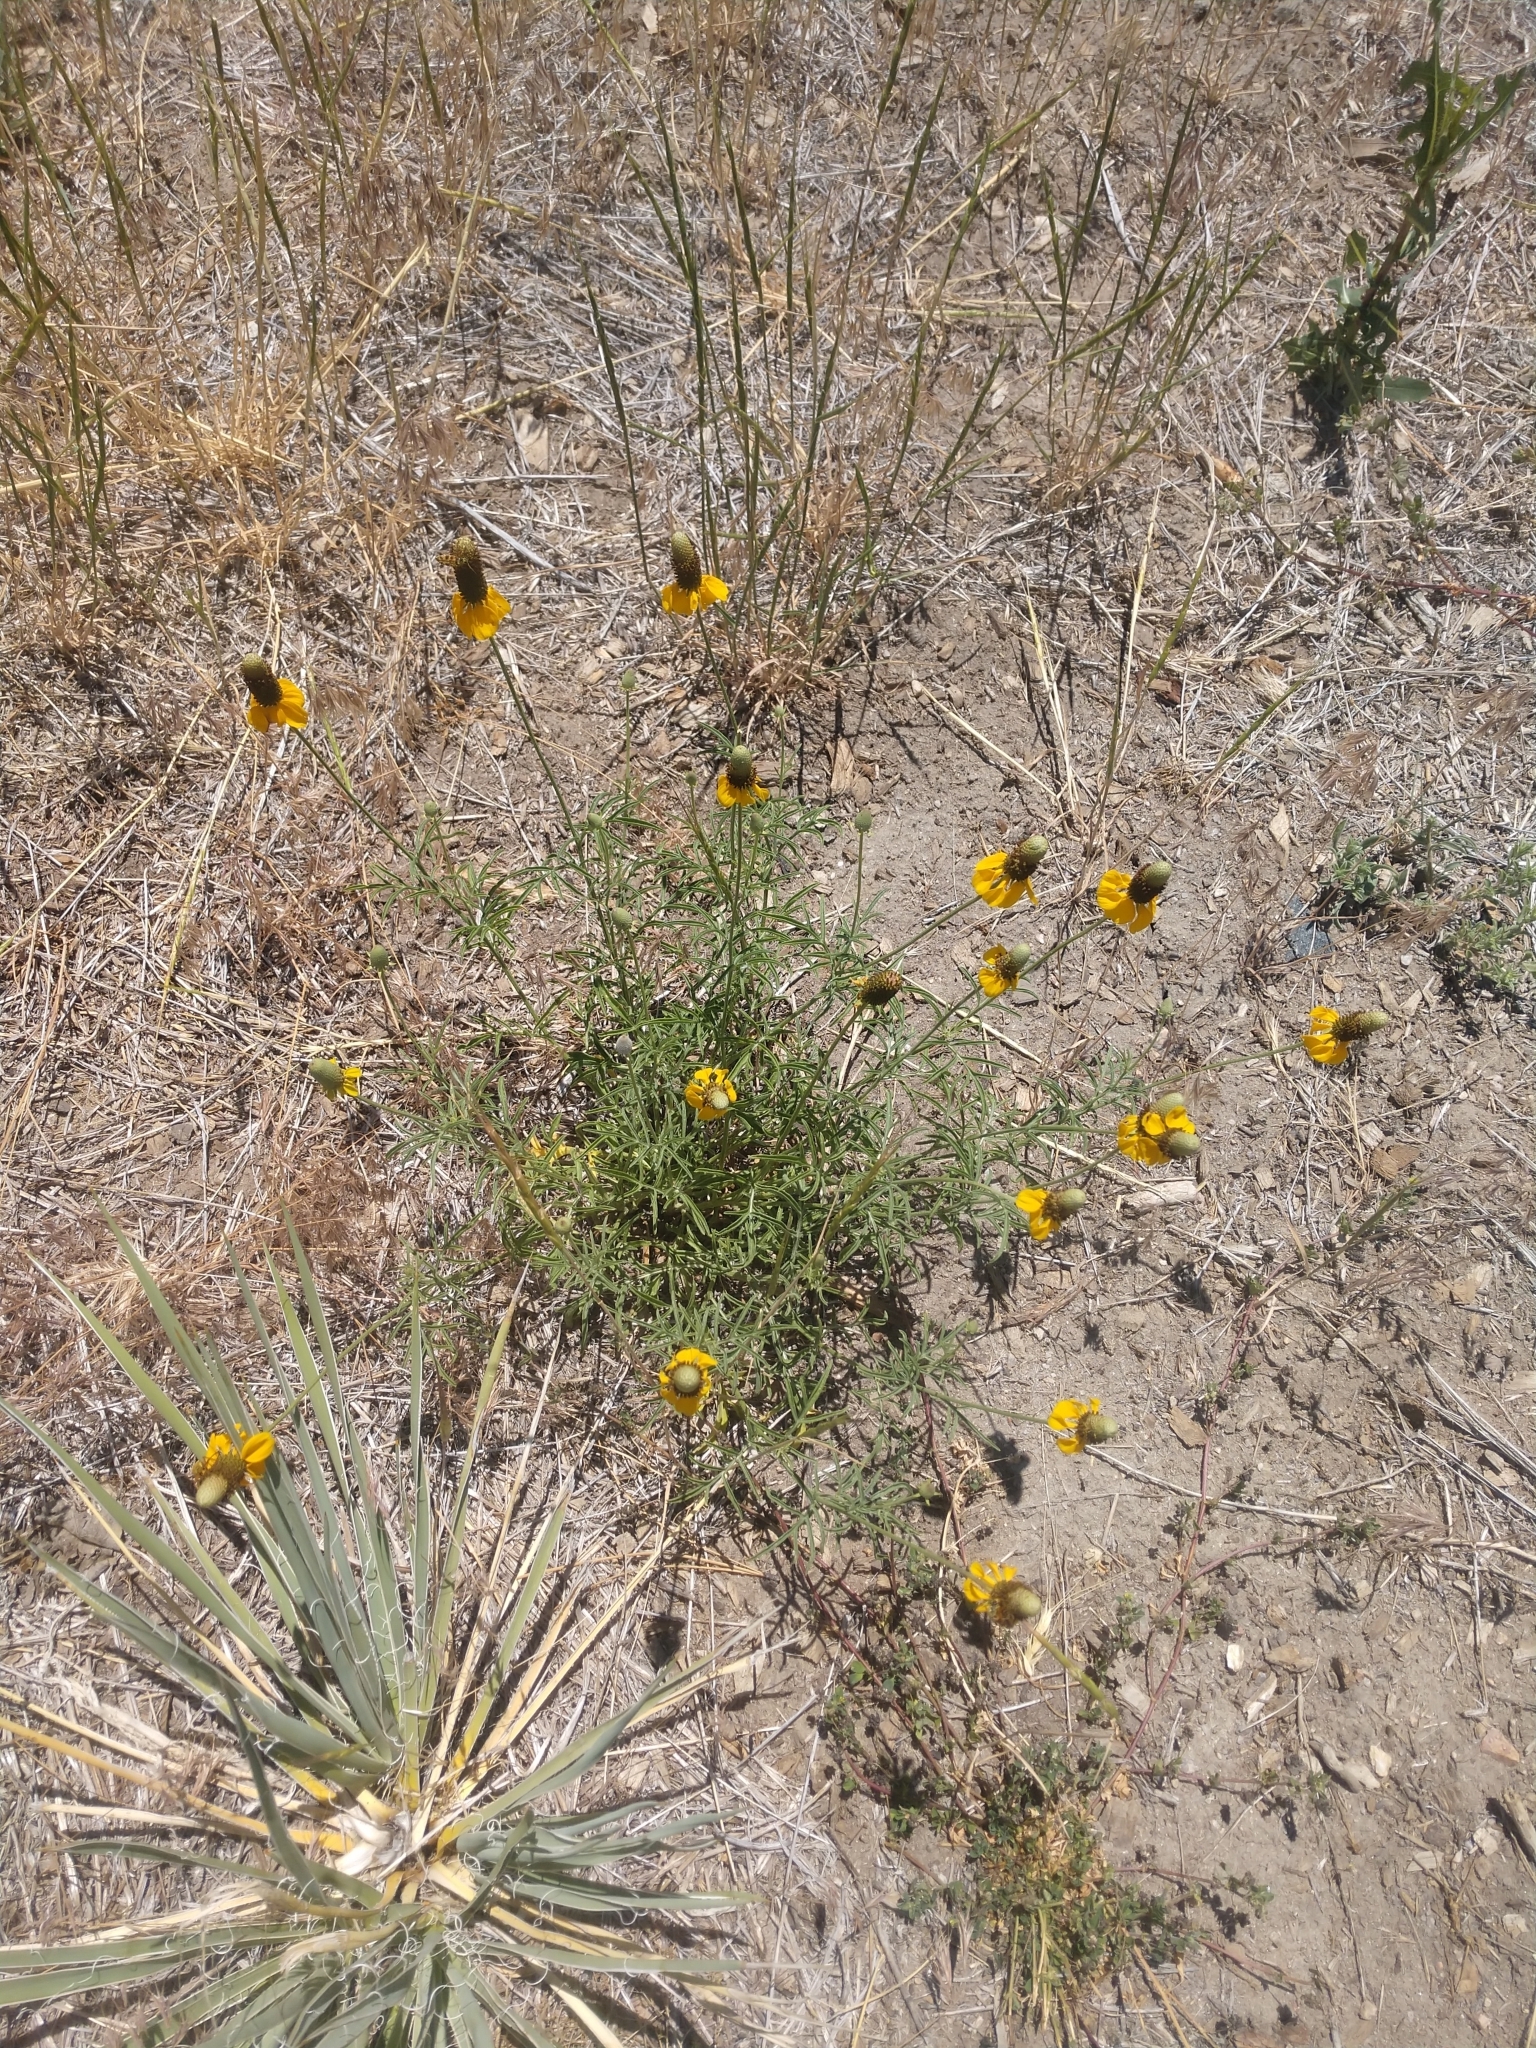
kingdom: Plantae
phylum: Tracheophyta
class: Magnoliopsida
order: Asterales
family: Asteraceae
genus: Ratibida
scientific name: Ratibida columnifera
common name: Prairie coneflower
